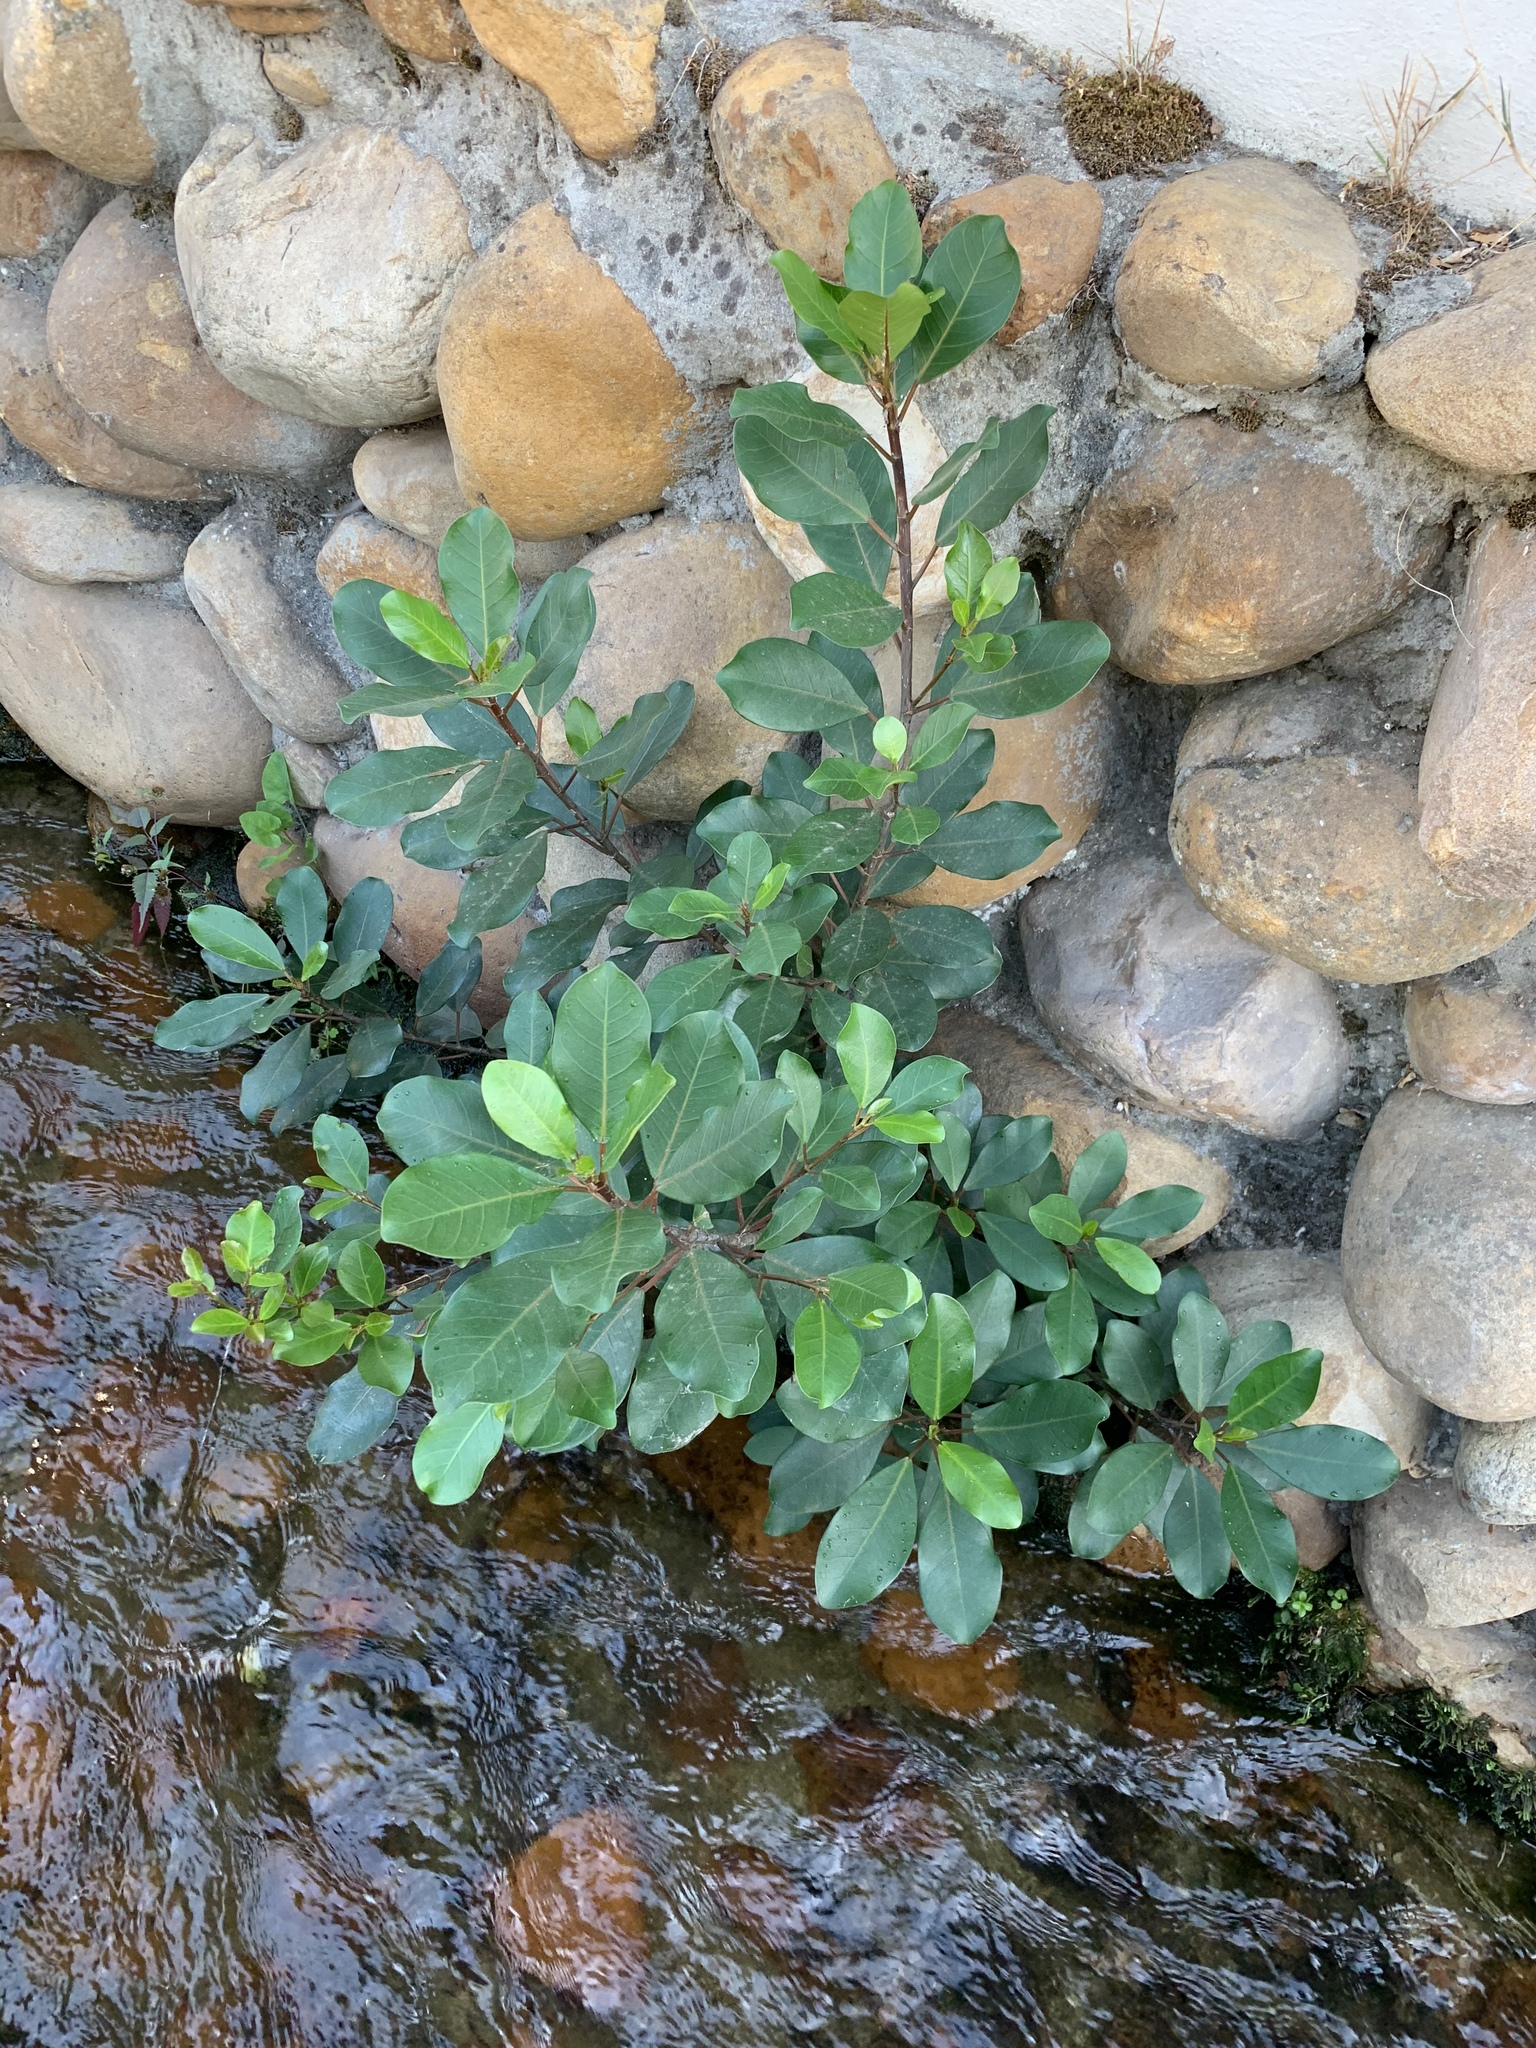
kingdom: Plantae
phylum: Tracheophyta
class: Magnoliopsida
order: Rosales
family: Moraceae
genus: Ficus
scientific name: Ficus thonningii
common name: Fig
